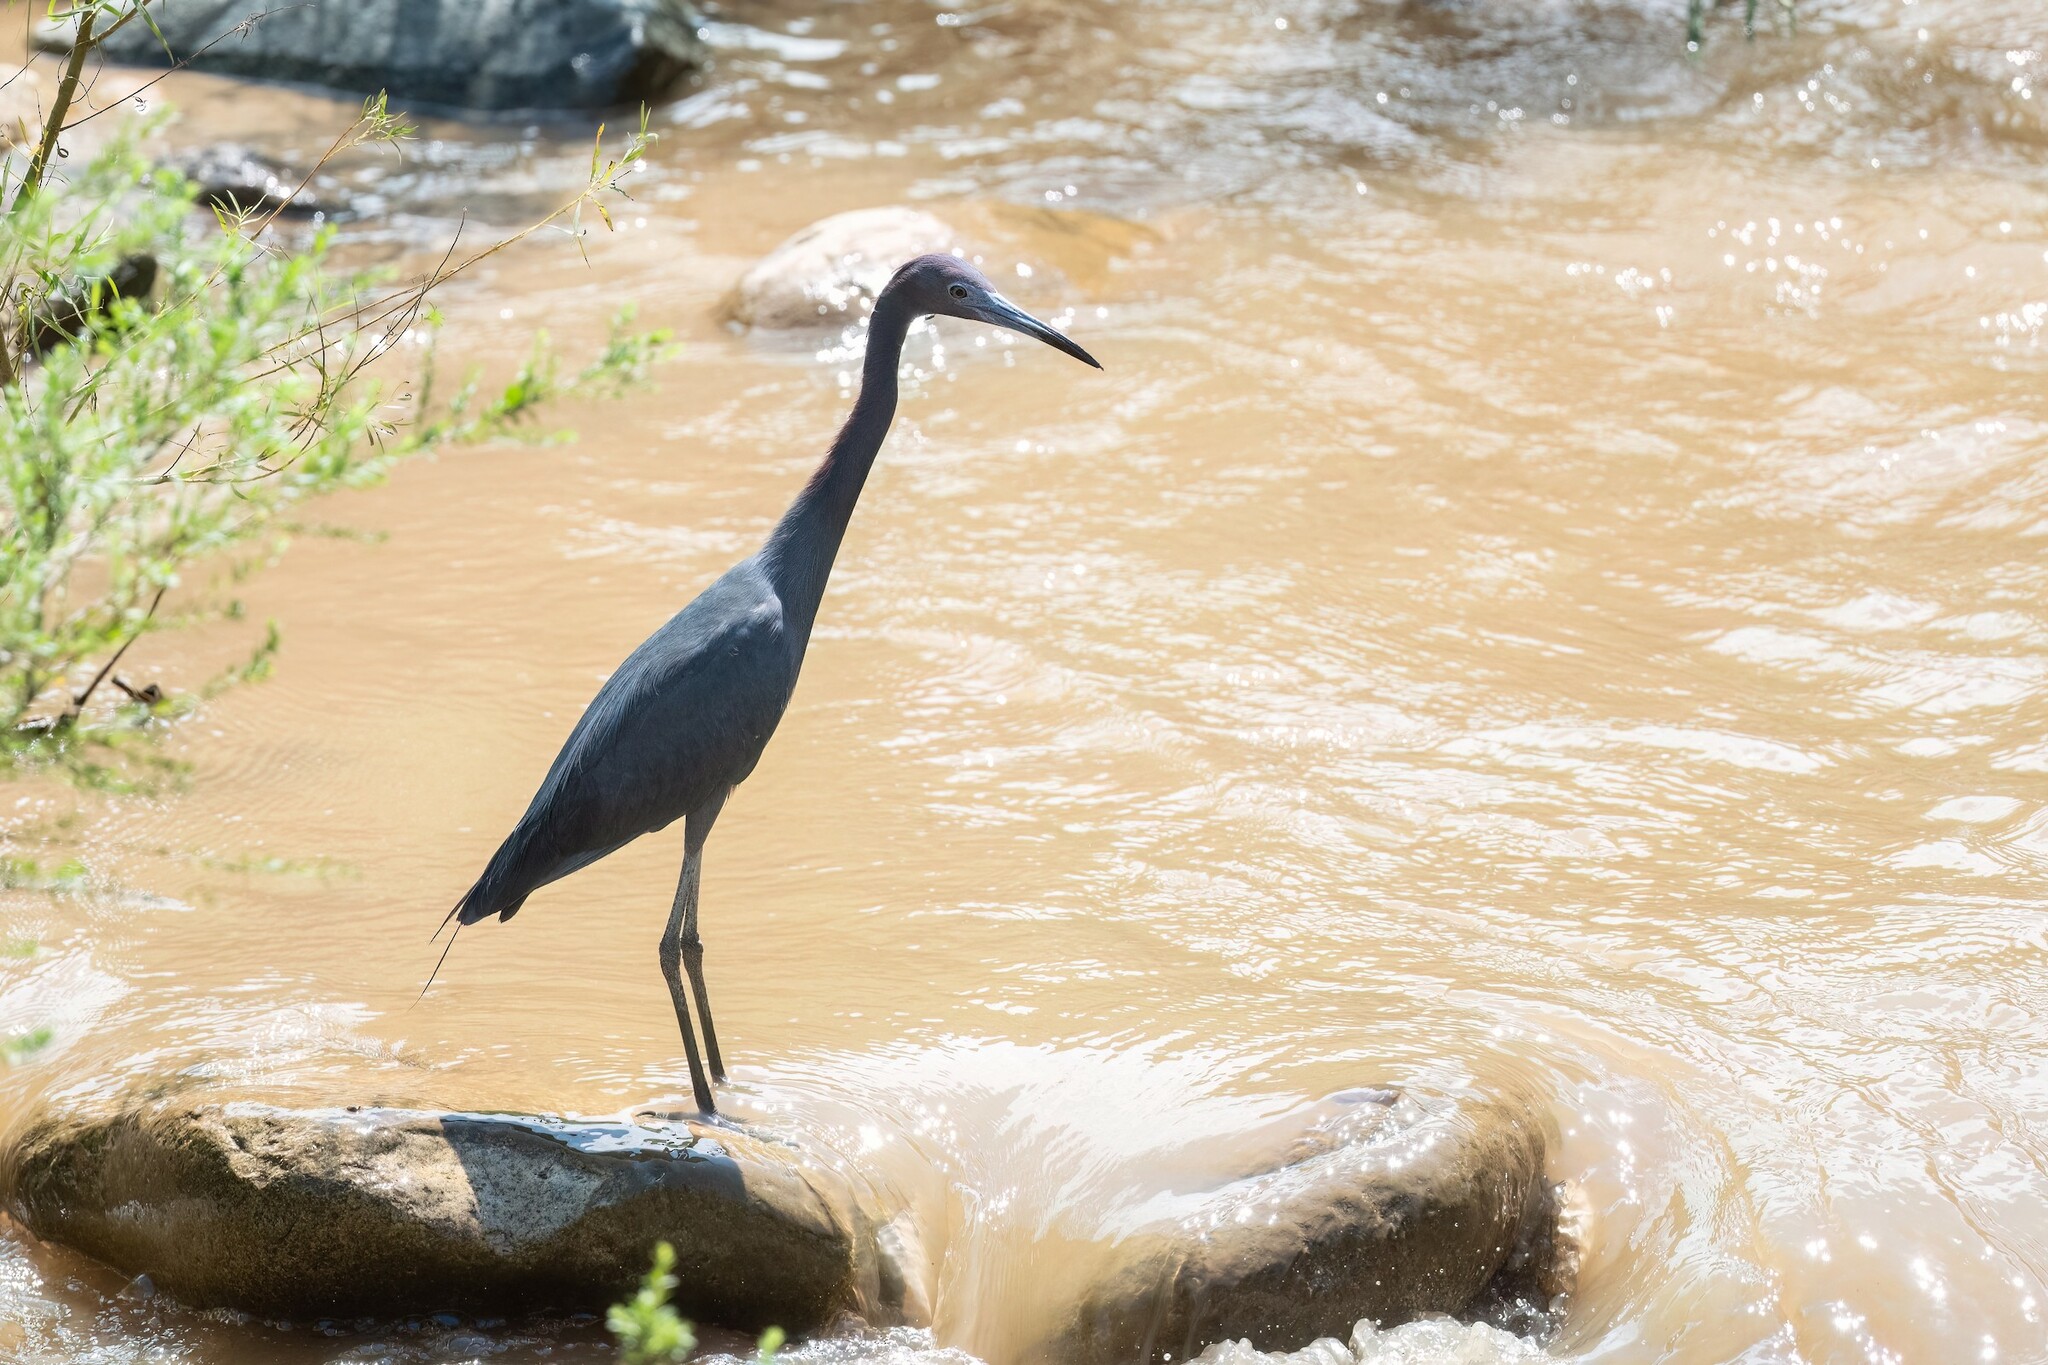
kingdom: Animalia
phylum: Chordata
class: Aves
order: Pelecaniformes
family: Ardeidae
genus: Egretta
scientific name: Egretta caerulea
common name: Little blue heron
